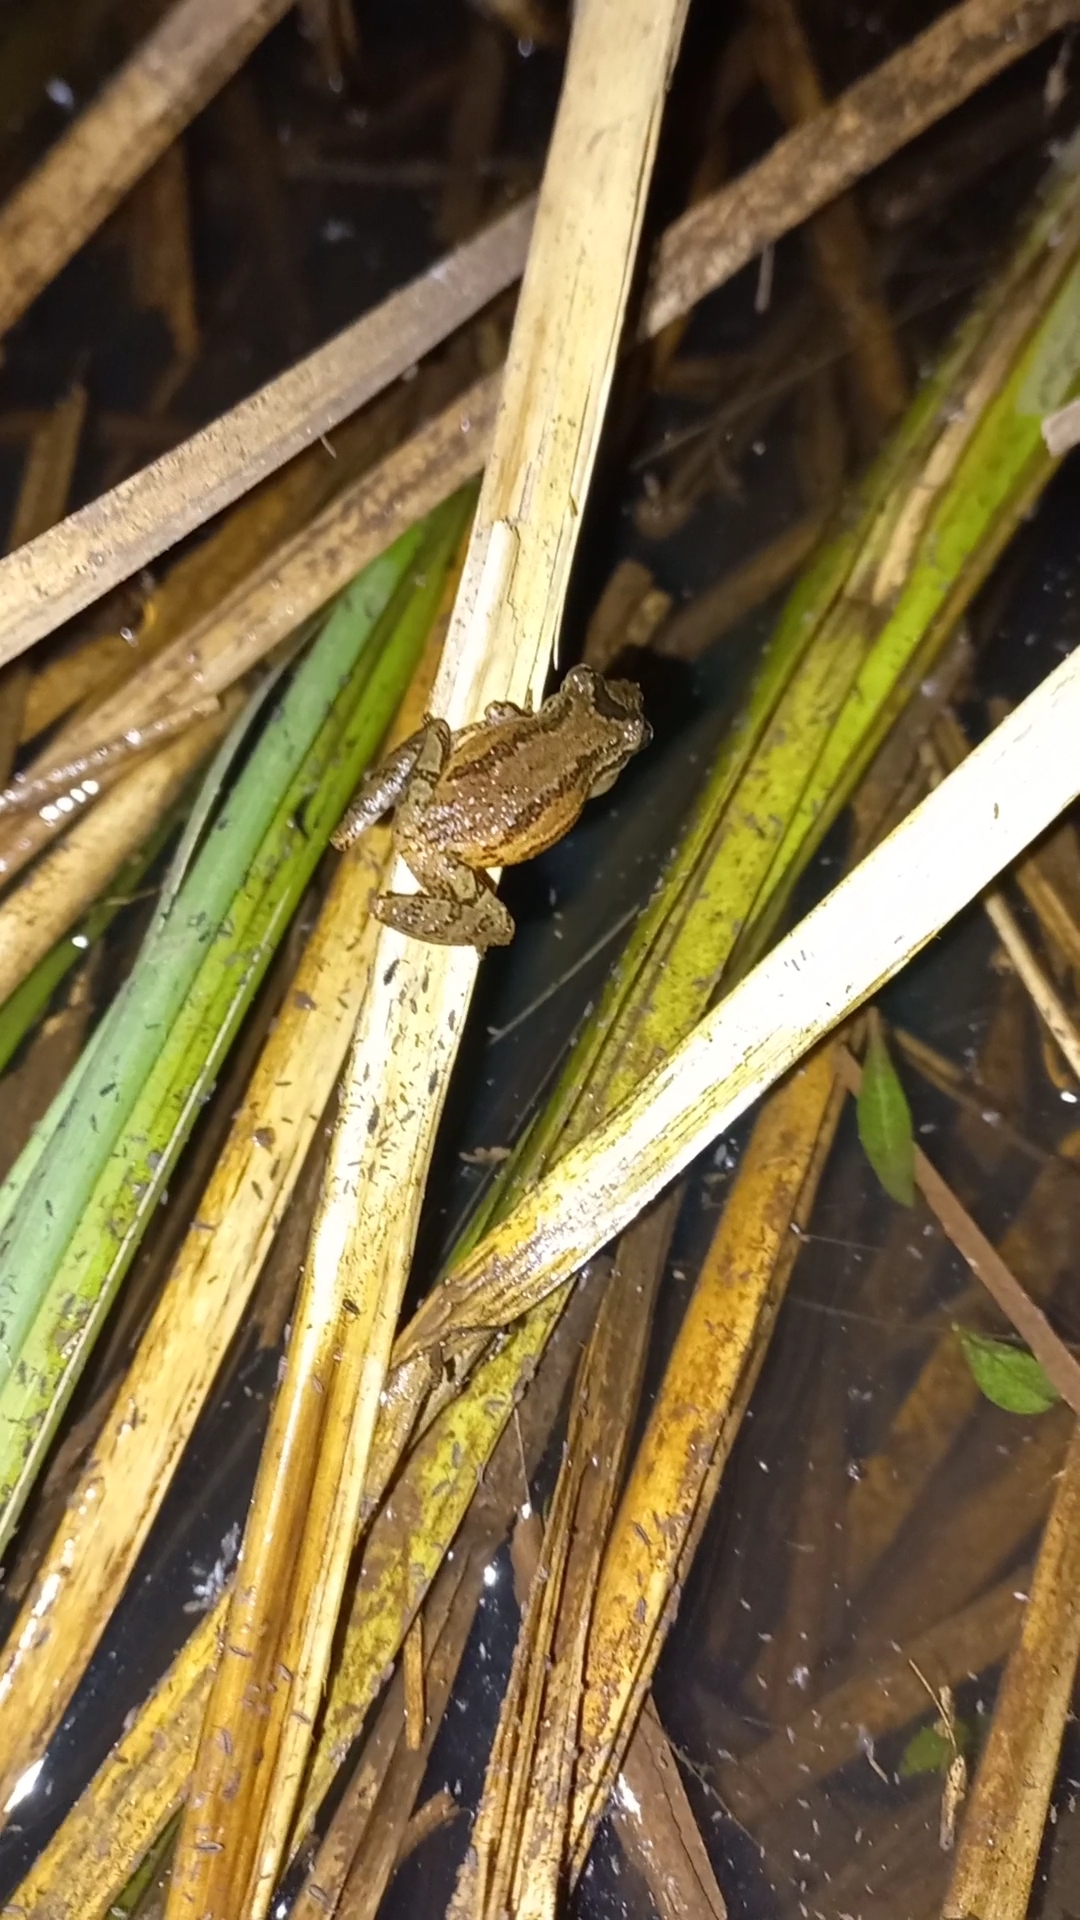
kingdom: Animalia
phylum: Chordata
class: Amphibia
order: Anura
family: Hylidae
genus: Ololygon
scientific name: Ololygon berthae
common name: Dwarf snouted treefrog
